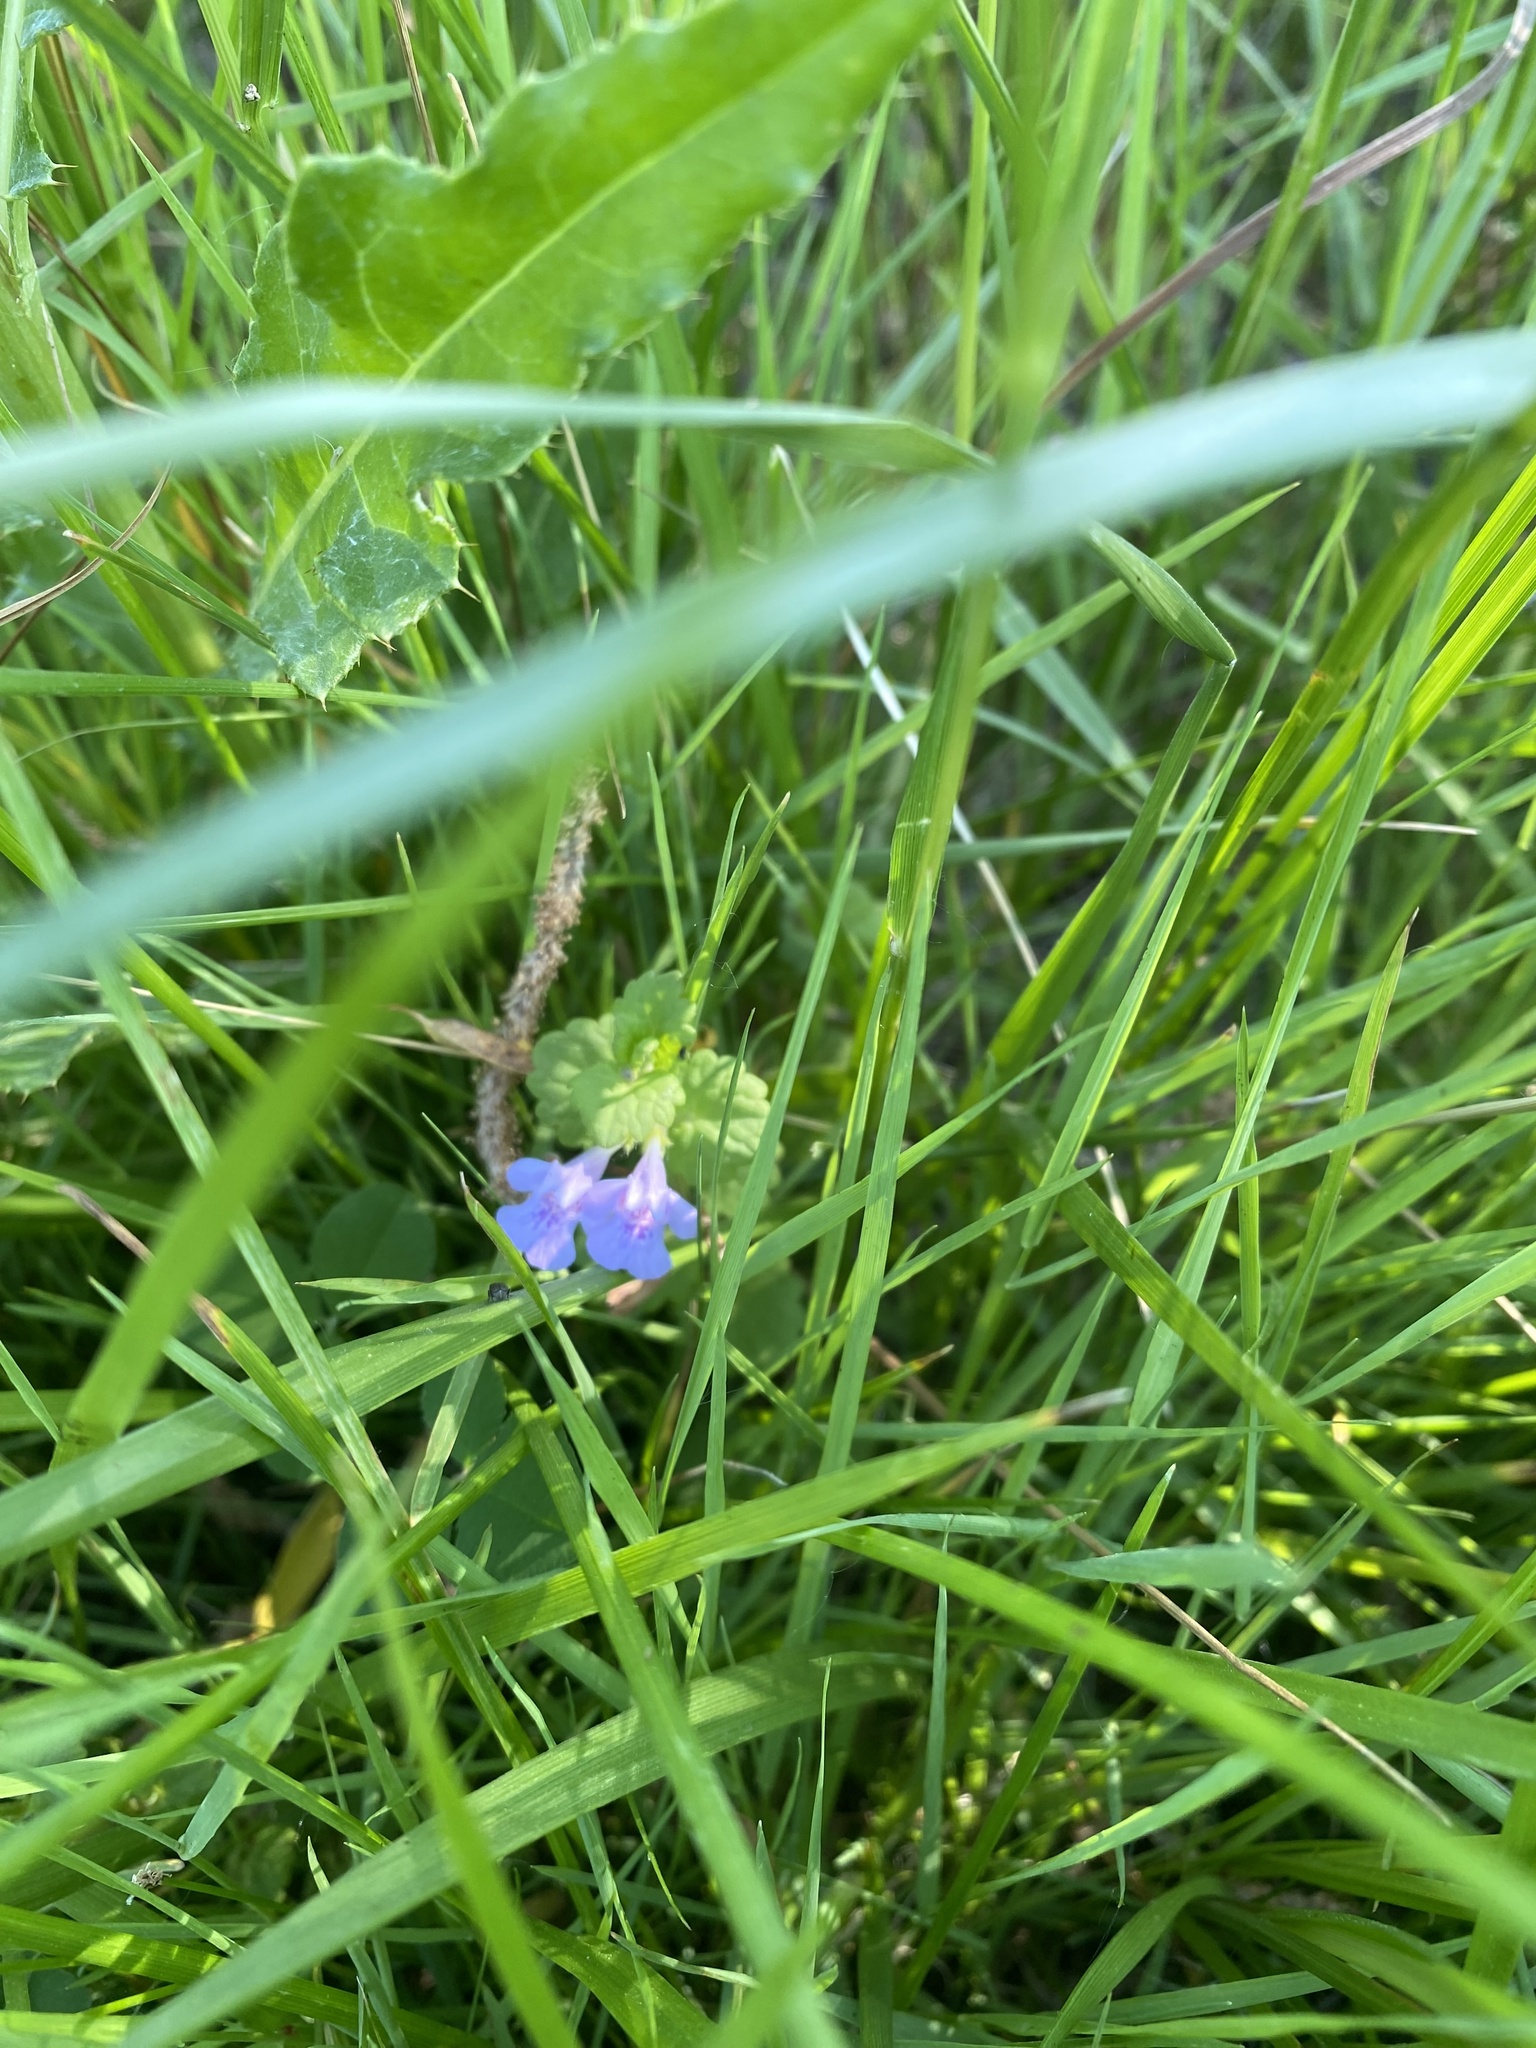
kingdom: Plantae
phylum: Tracheophyta
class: Magnoliopsida
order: Lamiales
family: Lamiaceae
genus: Glechoma
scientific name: Glechoma hederacea
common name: Ground ivy
